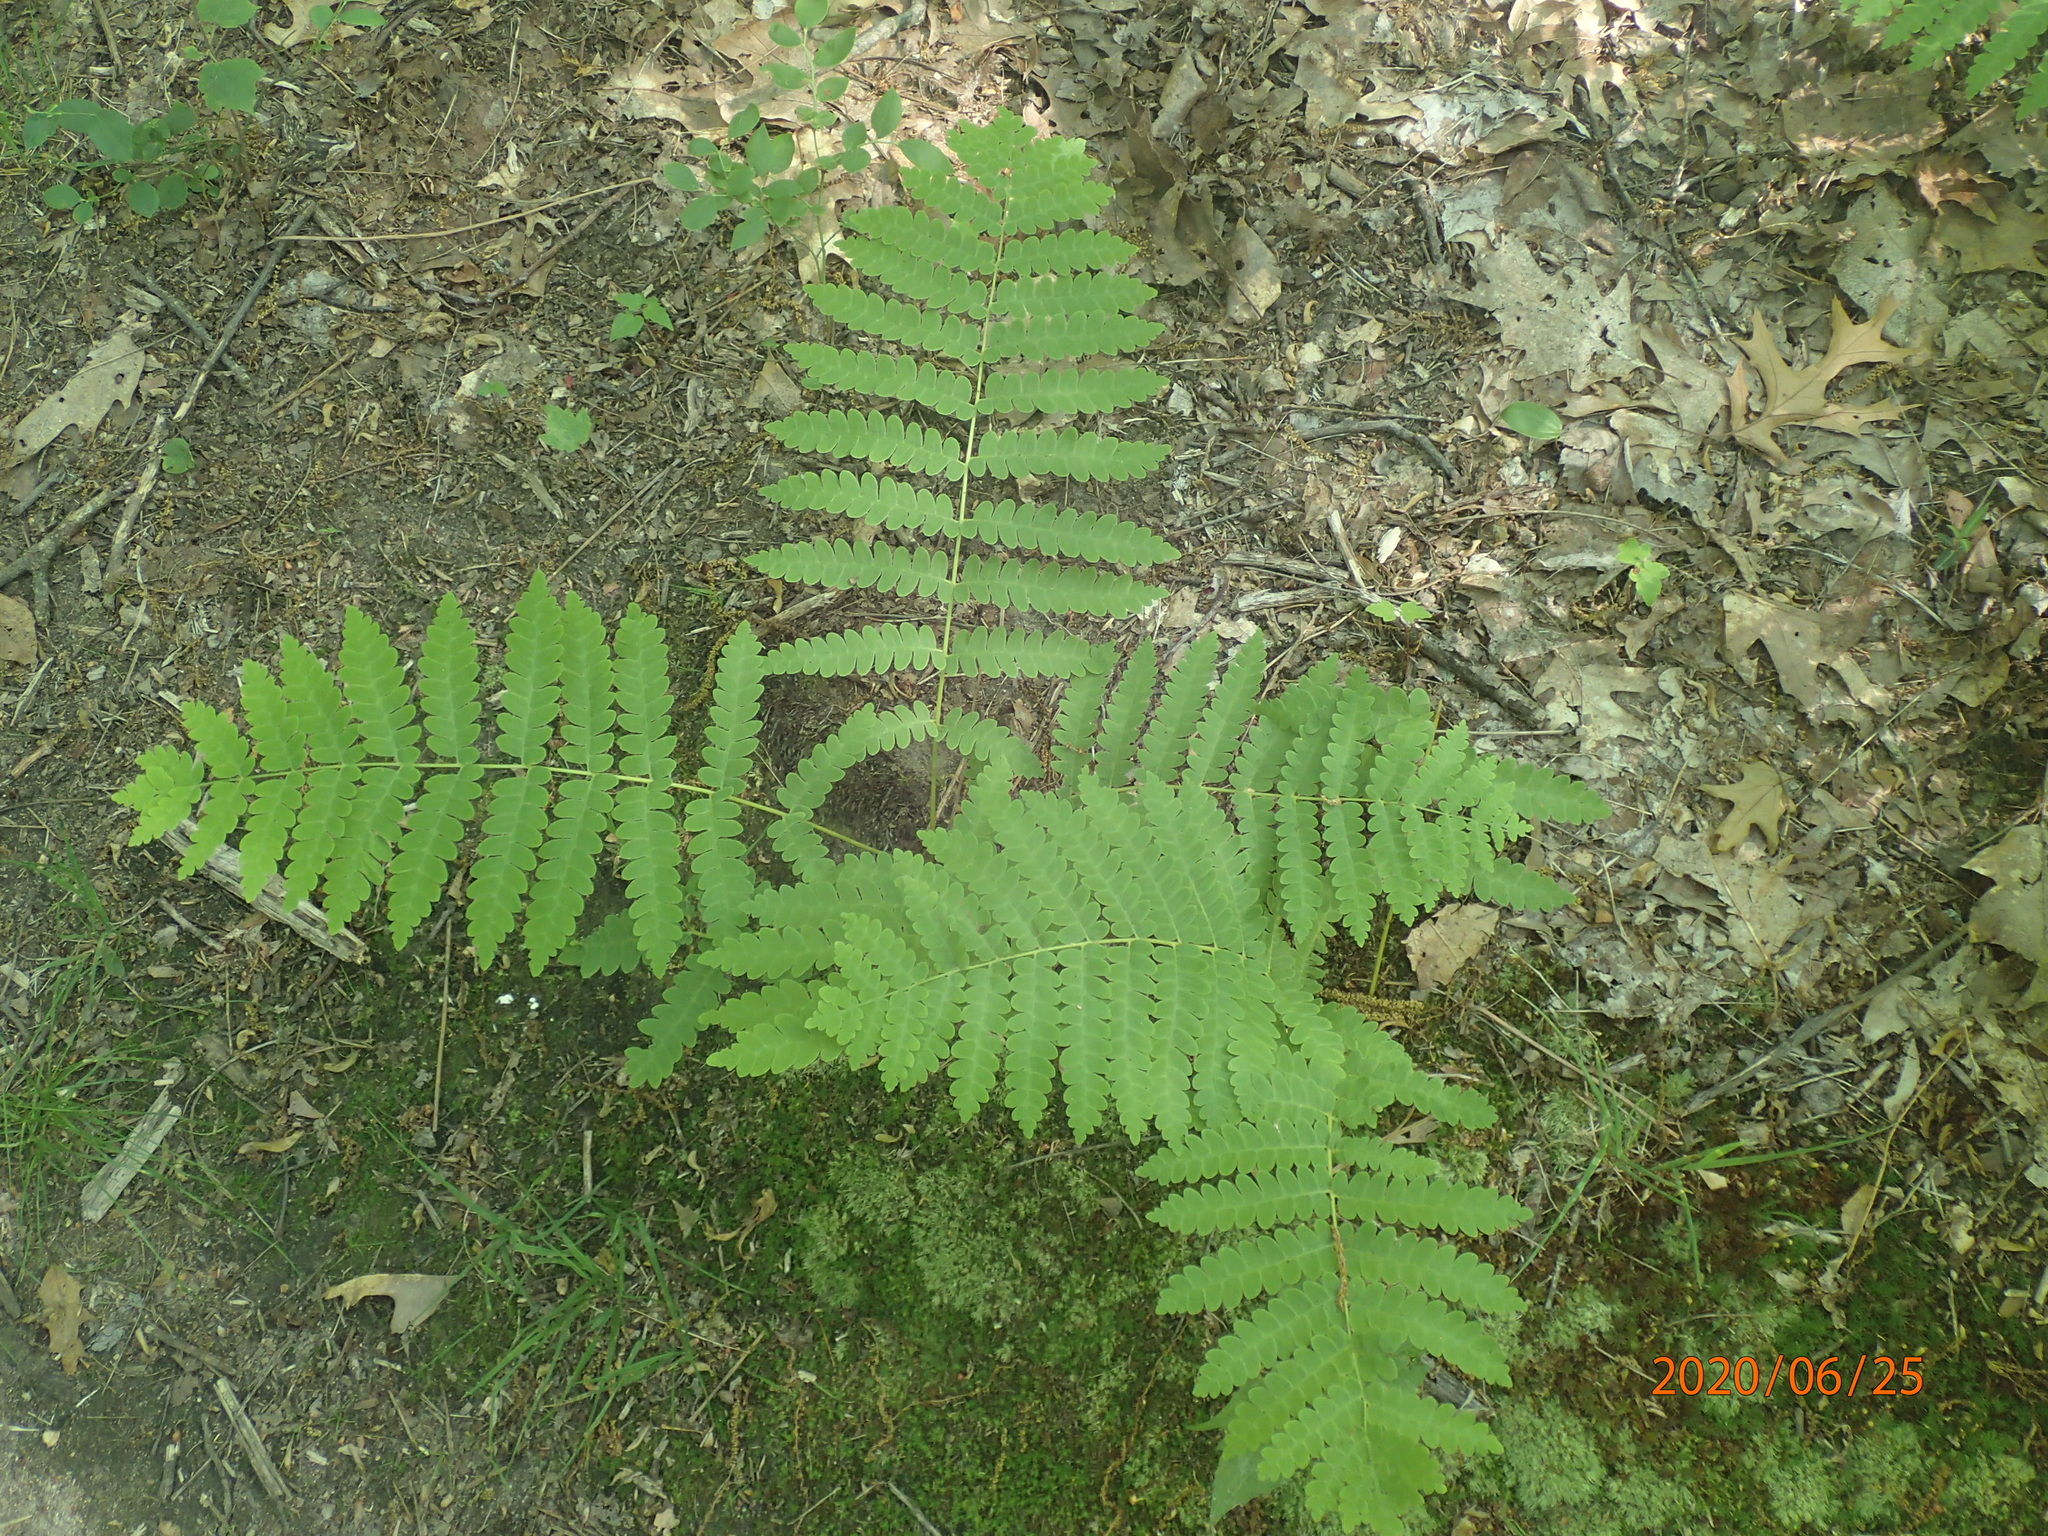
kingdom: Plantae
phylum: Tracheophyta
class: Polypodiopsida
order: Osmundales
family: Osmundaceae
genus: Claytosmunda
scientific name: Claytosmunda claytoniana
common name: Clayton's fern
